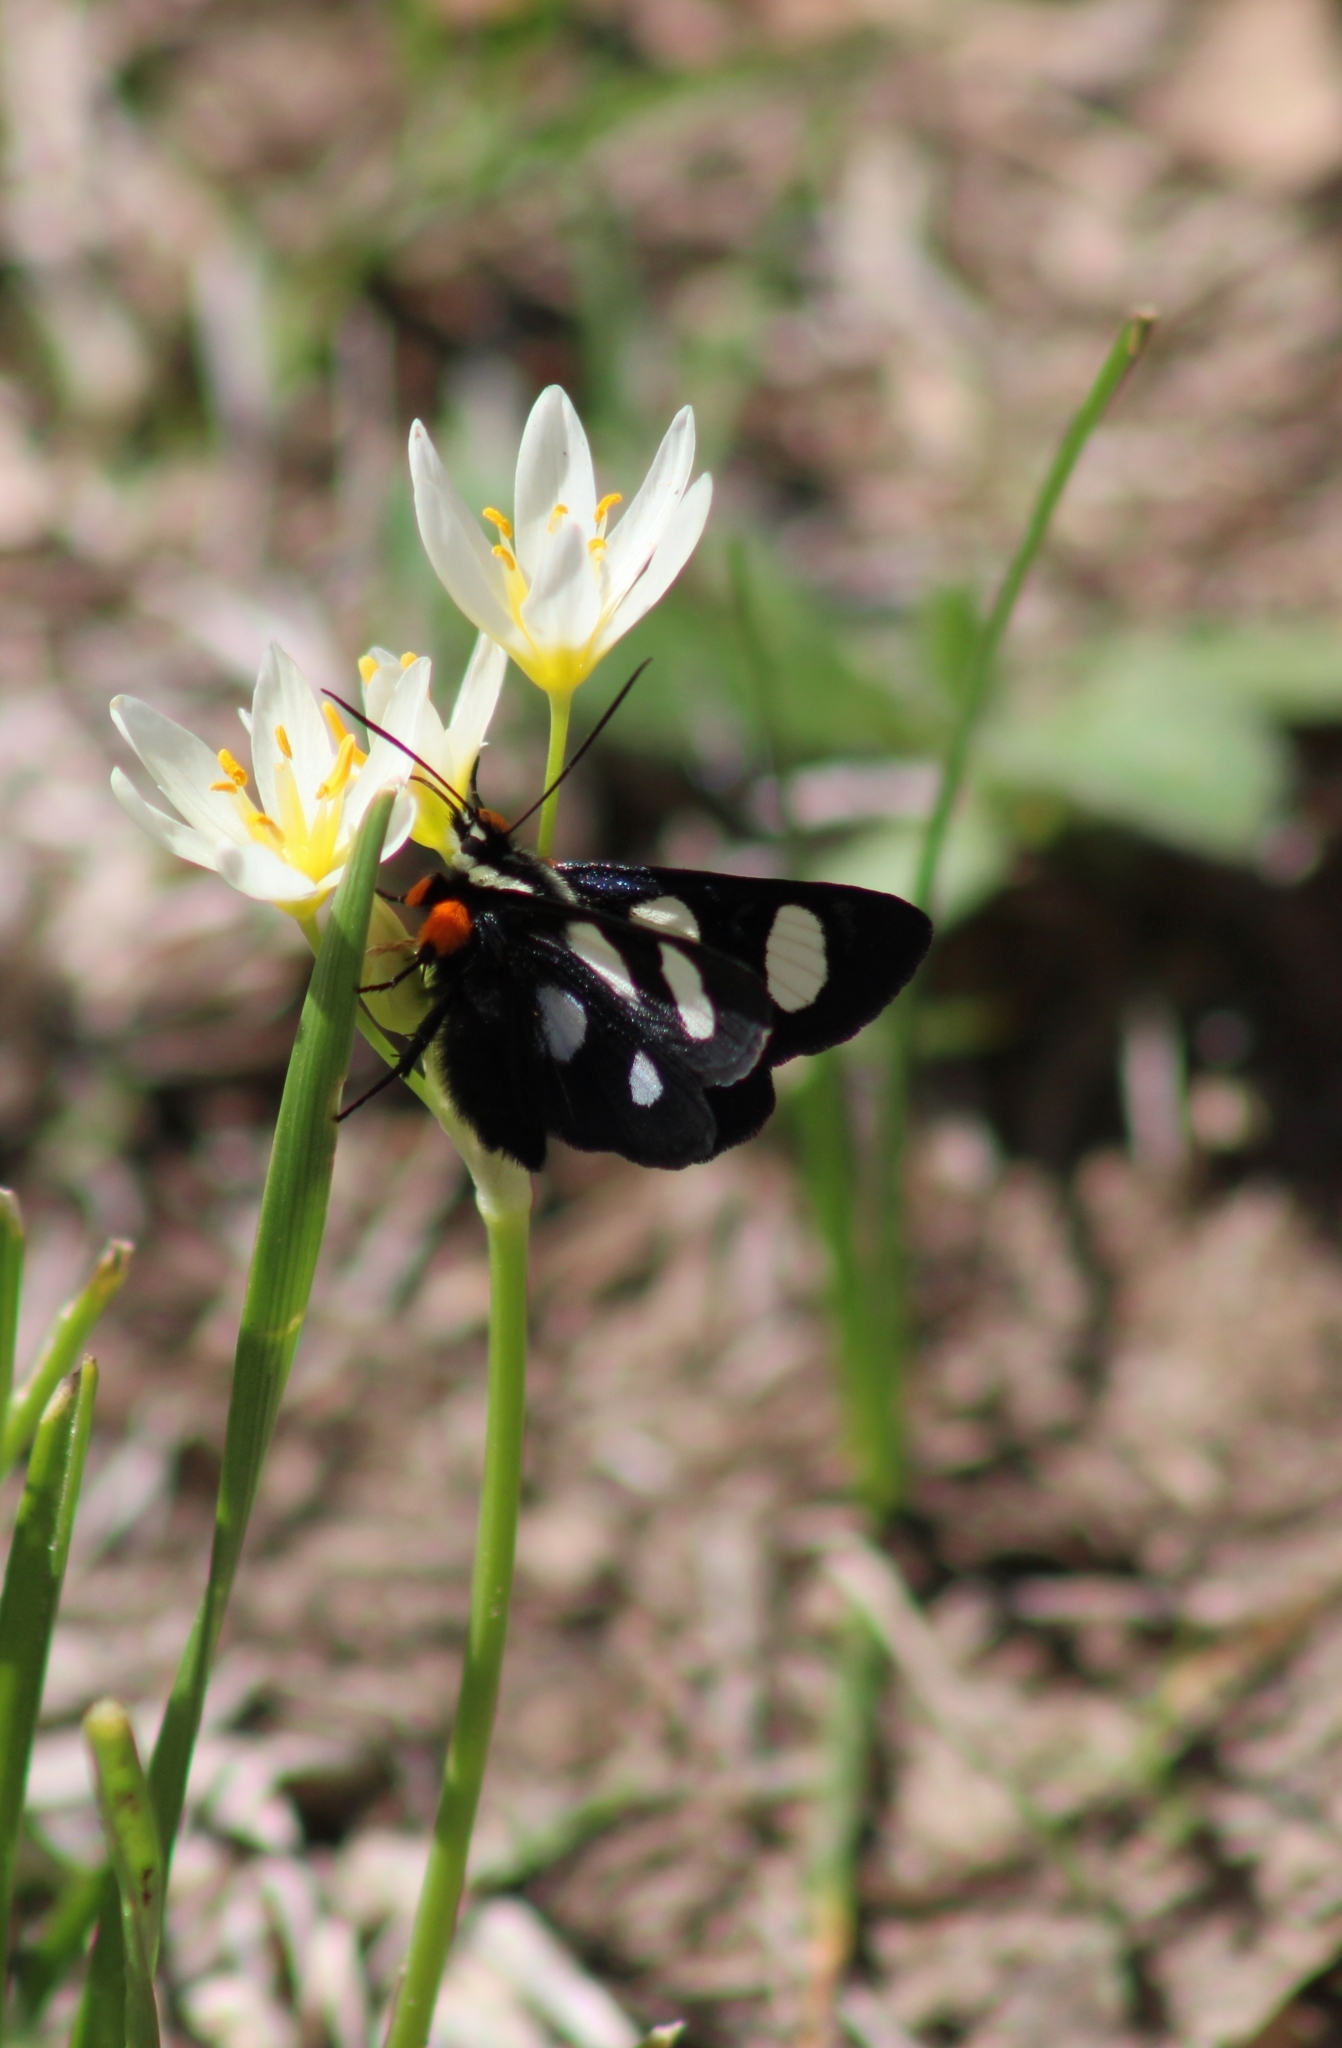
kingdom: Animalia
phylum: Arthropoda
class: Insecta
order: Lepidoptera
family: Noctuidae
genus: Alypia
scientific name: Alypia octomaculata
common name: Eight-spotted forester
